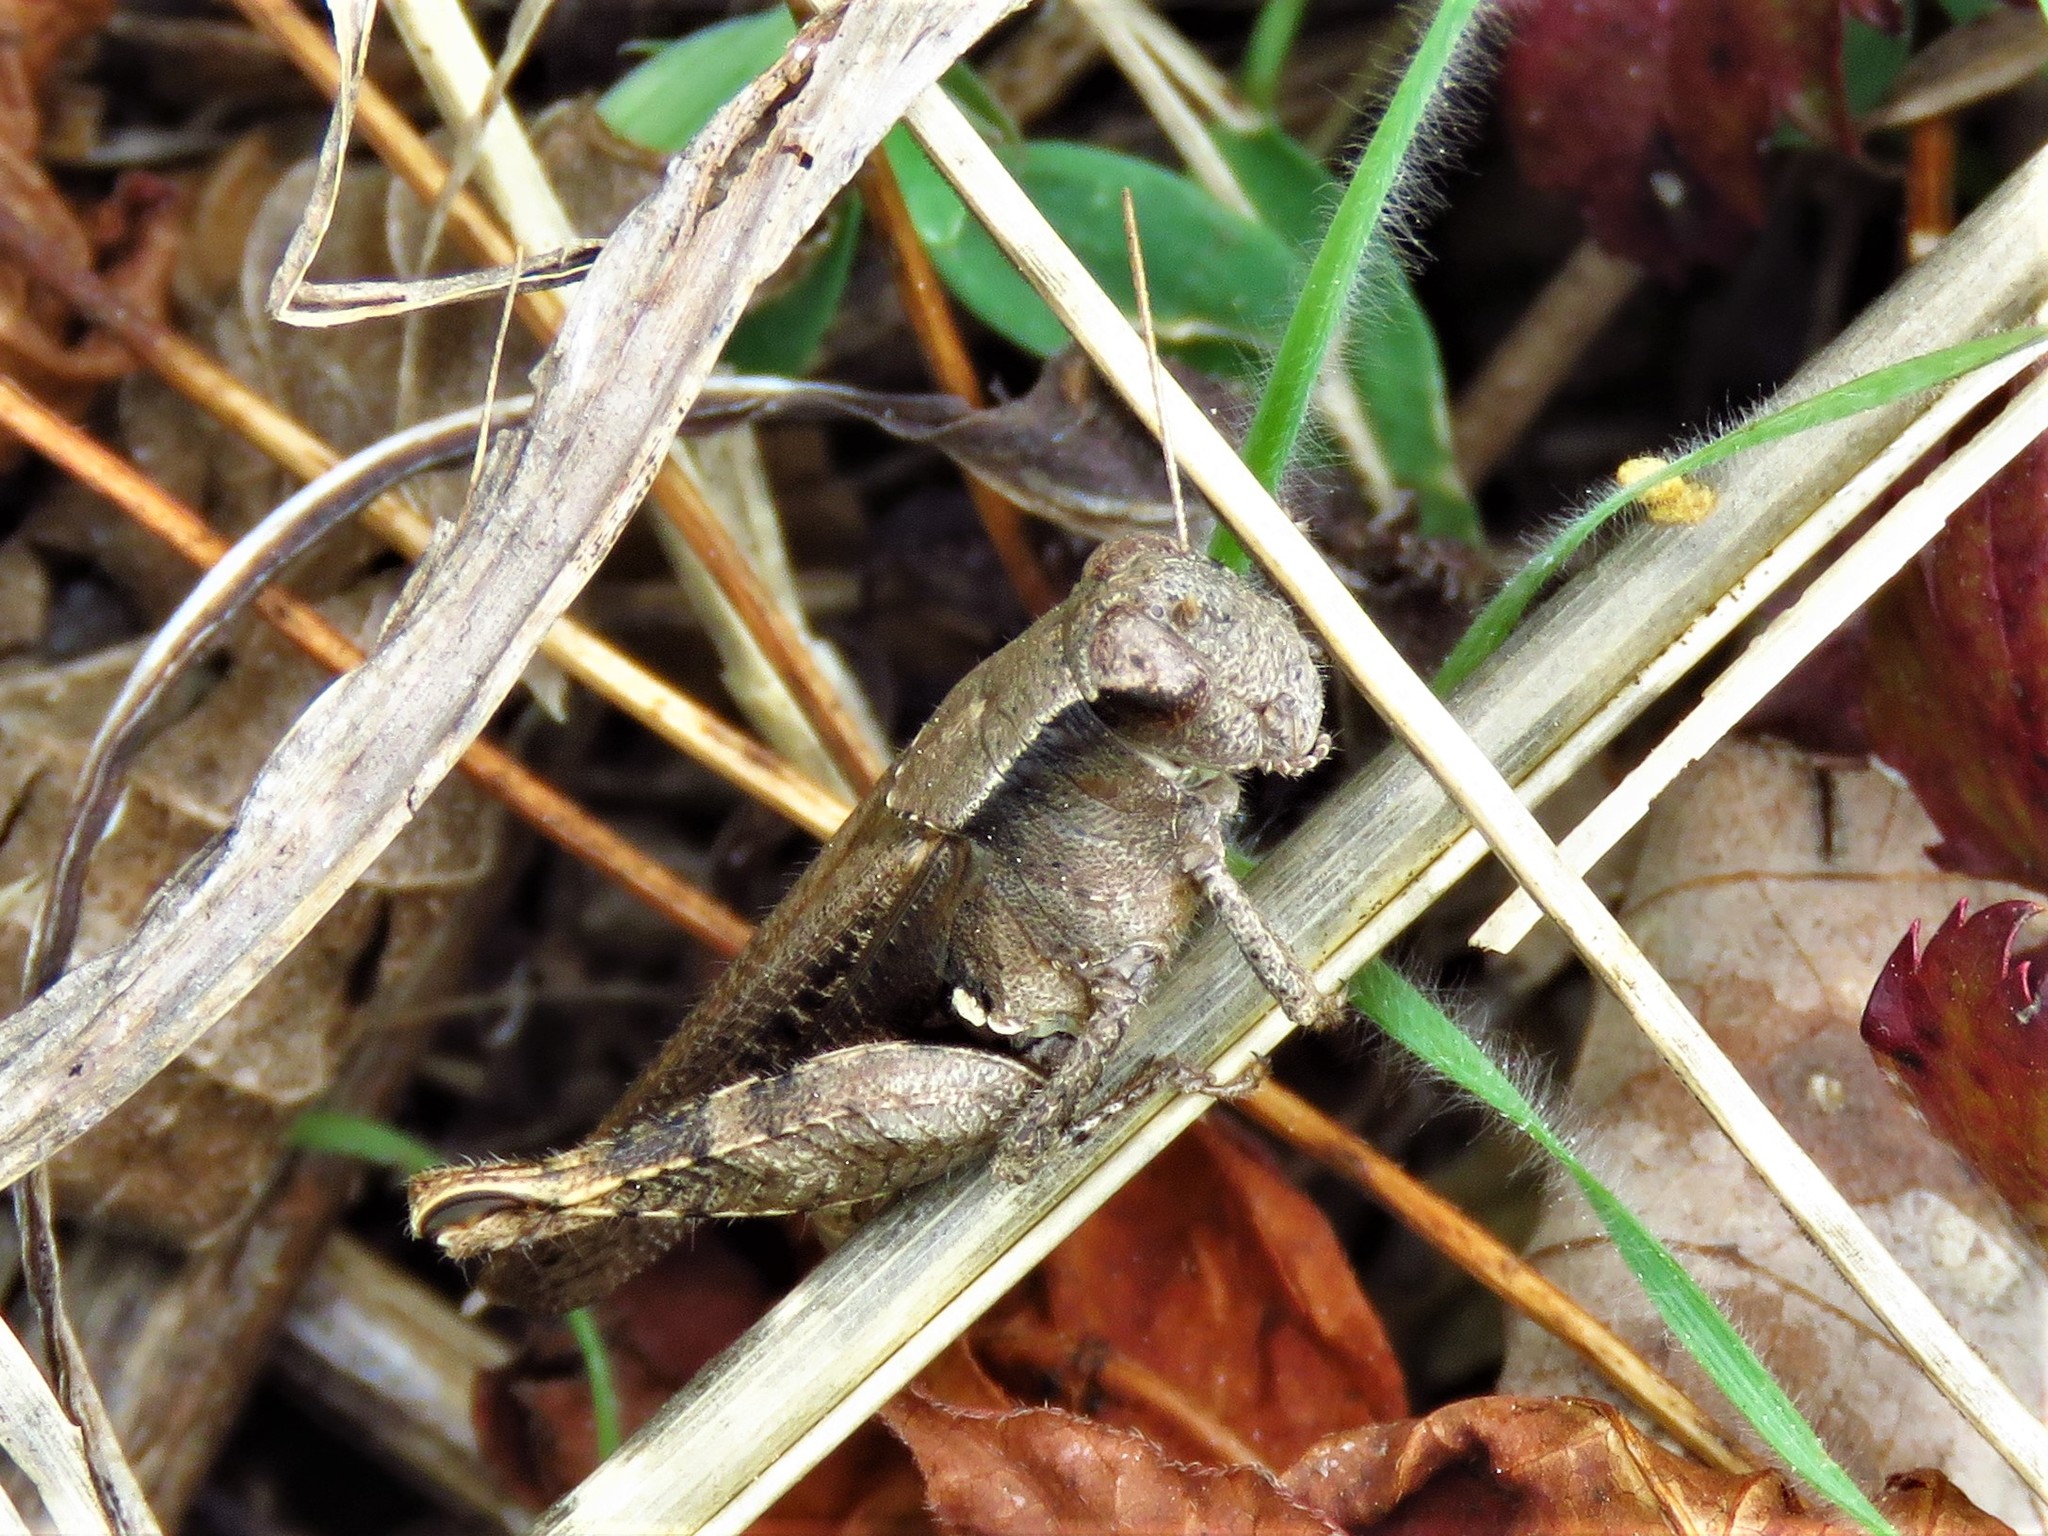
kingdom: Animalia
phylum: Arthropoda
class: Insecta
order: Orthoptera
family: Acrididae
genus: Aidemona
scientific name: Aidemona azteca
